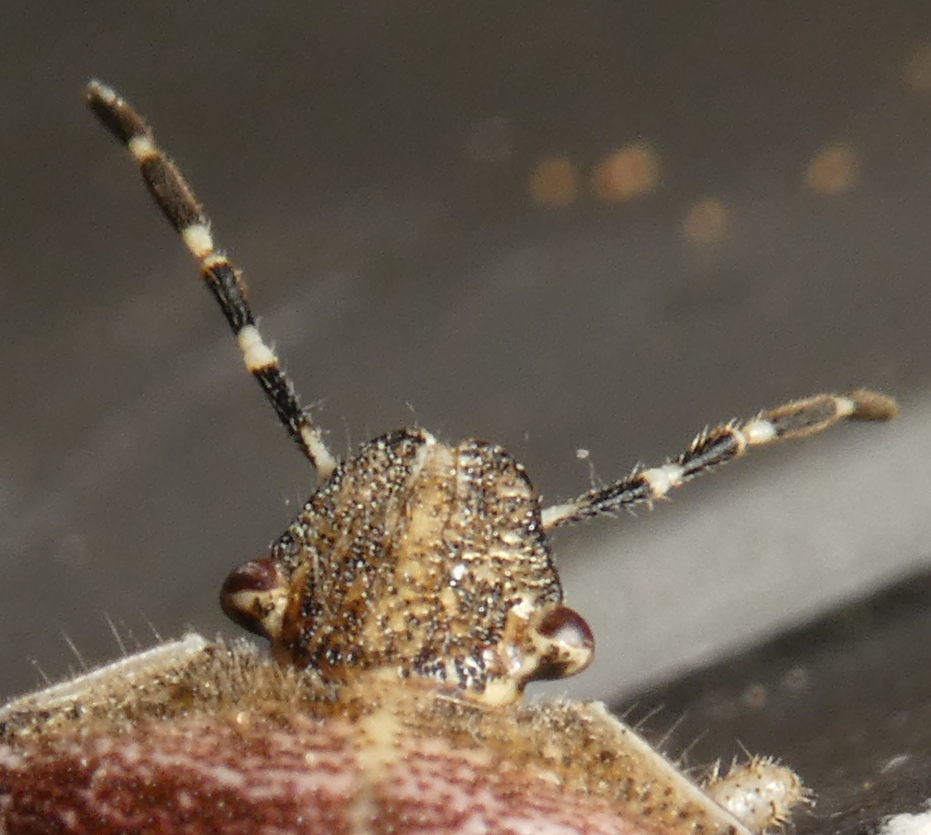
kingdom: Animalia
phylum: Arthropoda
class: Insecta
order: Hemiptera
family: Pentatomidae
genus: Dolycoris
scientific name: Dolycoris baccarum
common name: Sloe bug
